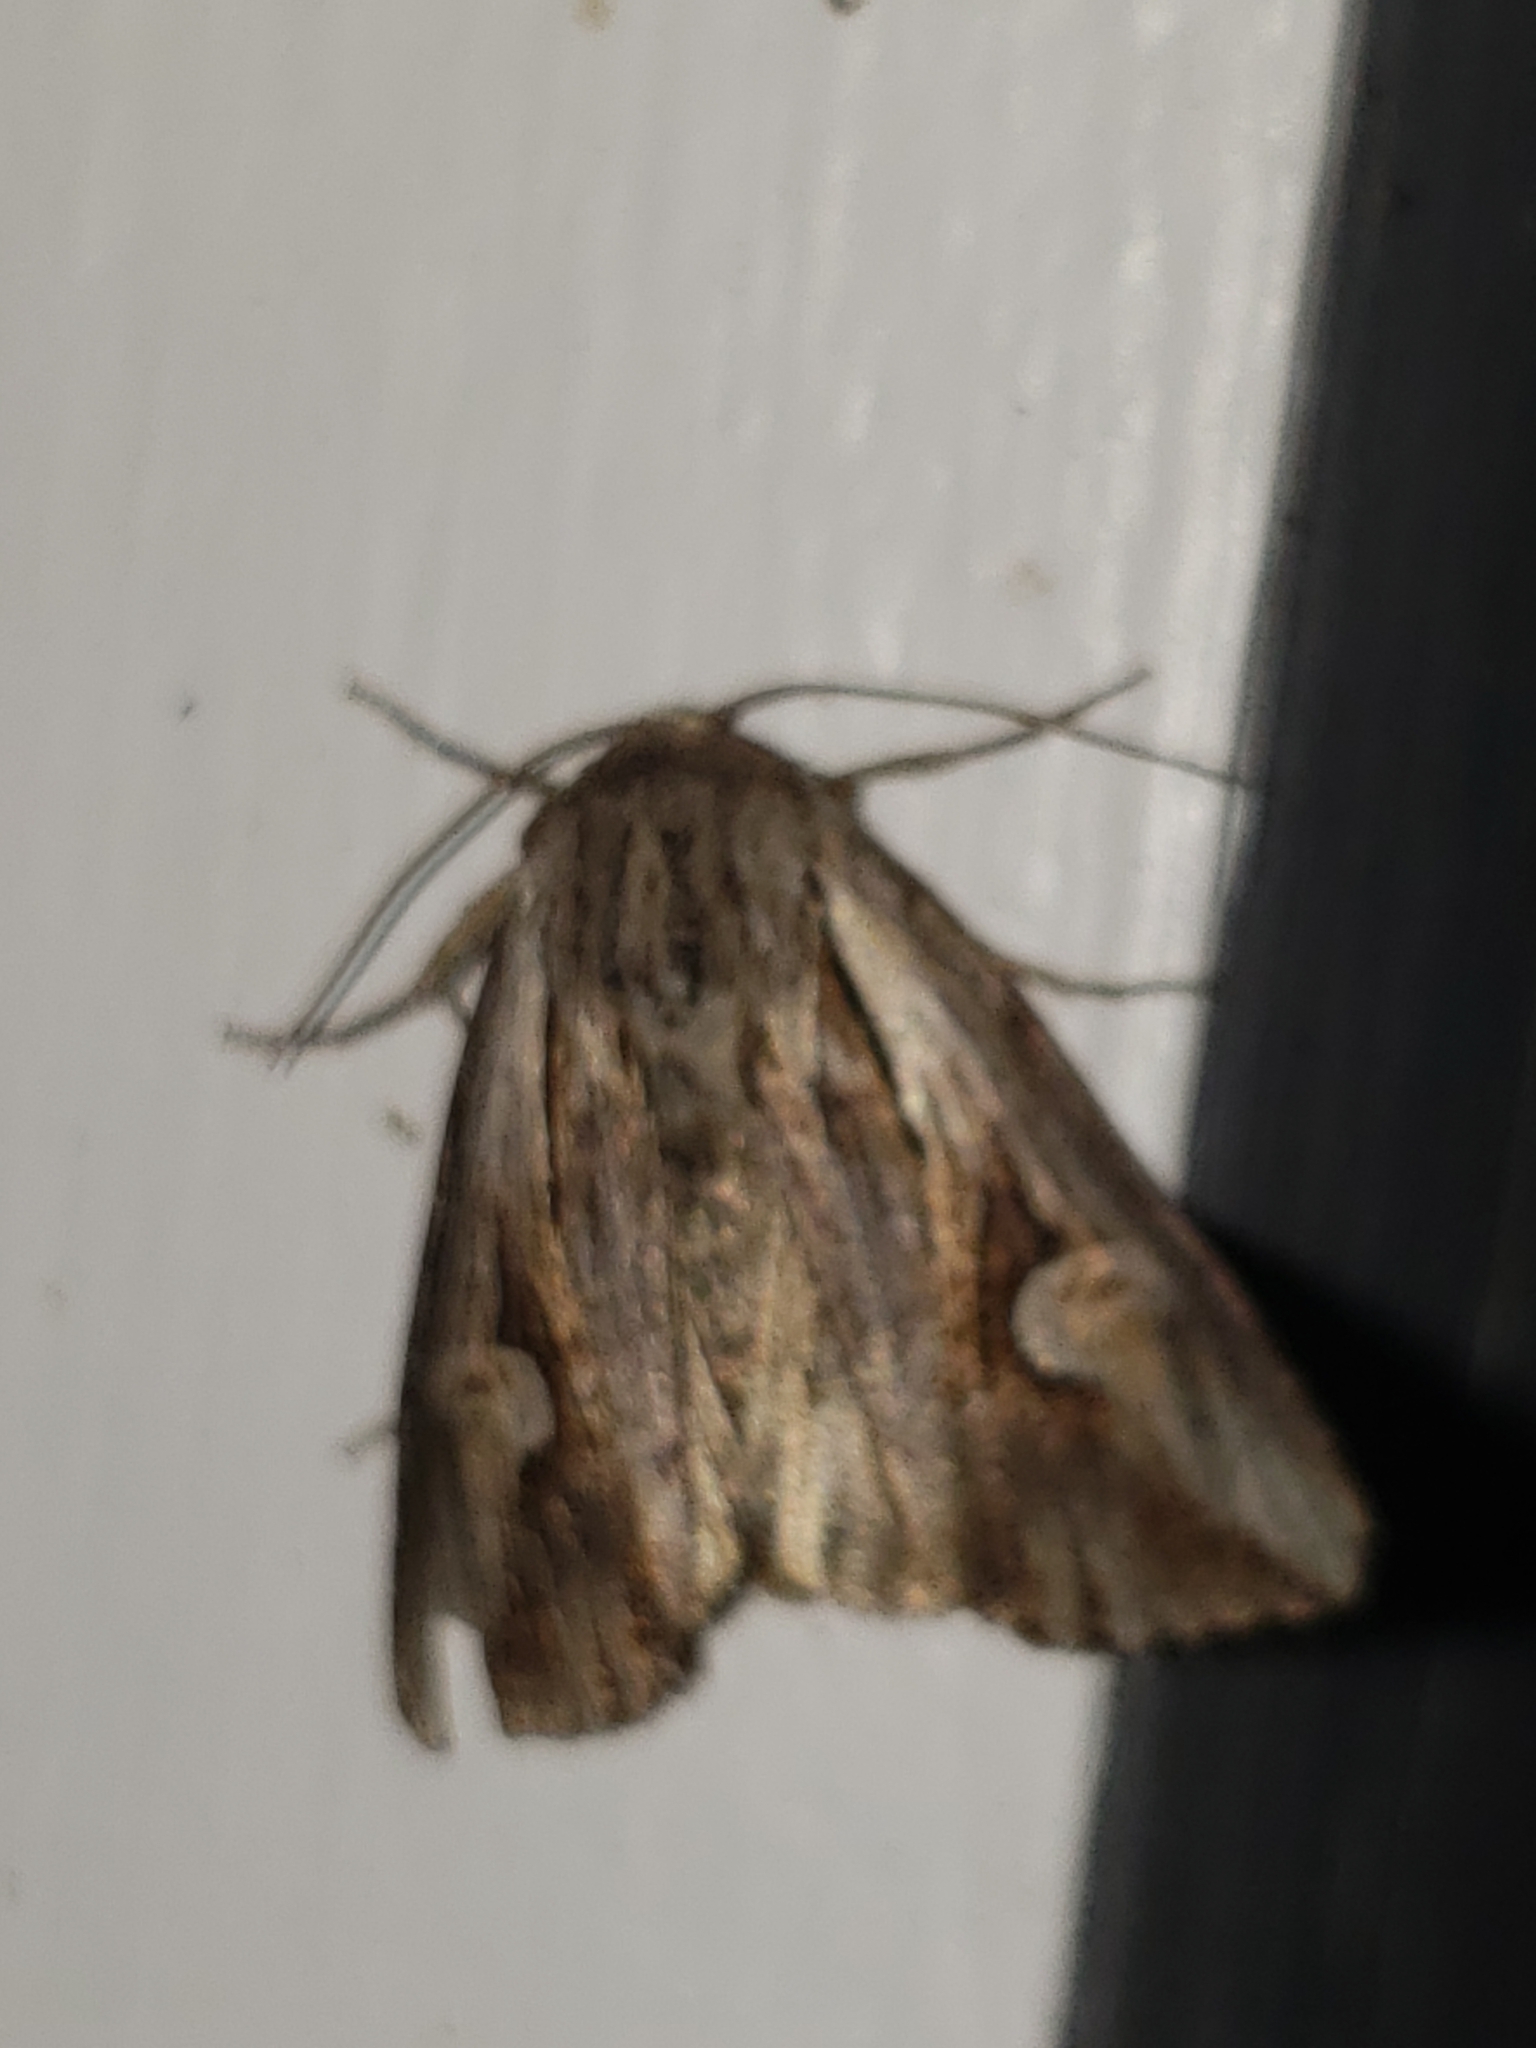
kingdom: Animalia
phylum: Arthropoda
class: Insecta
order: Lepidoptera
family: Noctuidae
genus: Nedra
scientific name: Nedra ramosula
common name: Gray half-spot
